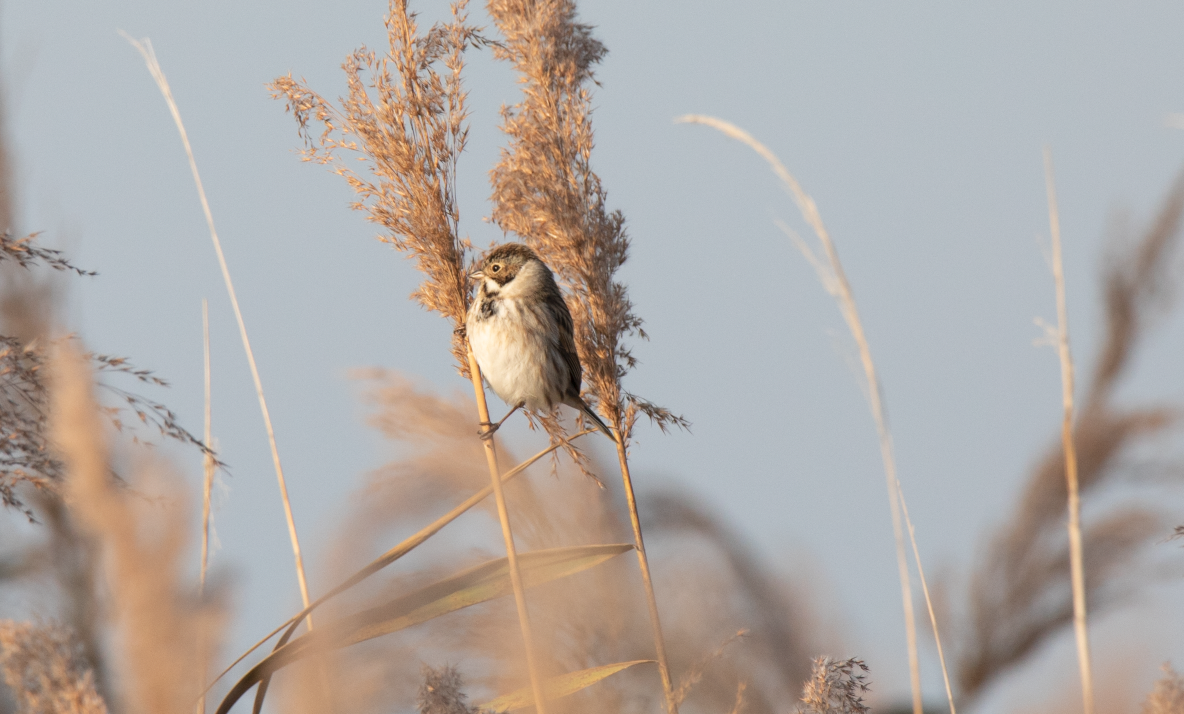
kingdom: Animalia
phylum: Chordata
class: Aves
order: Passeriformes
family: Emberizidae
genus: Emberiza
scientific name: Emberiza schoeniclus
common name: Reed bunting
